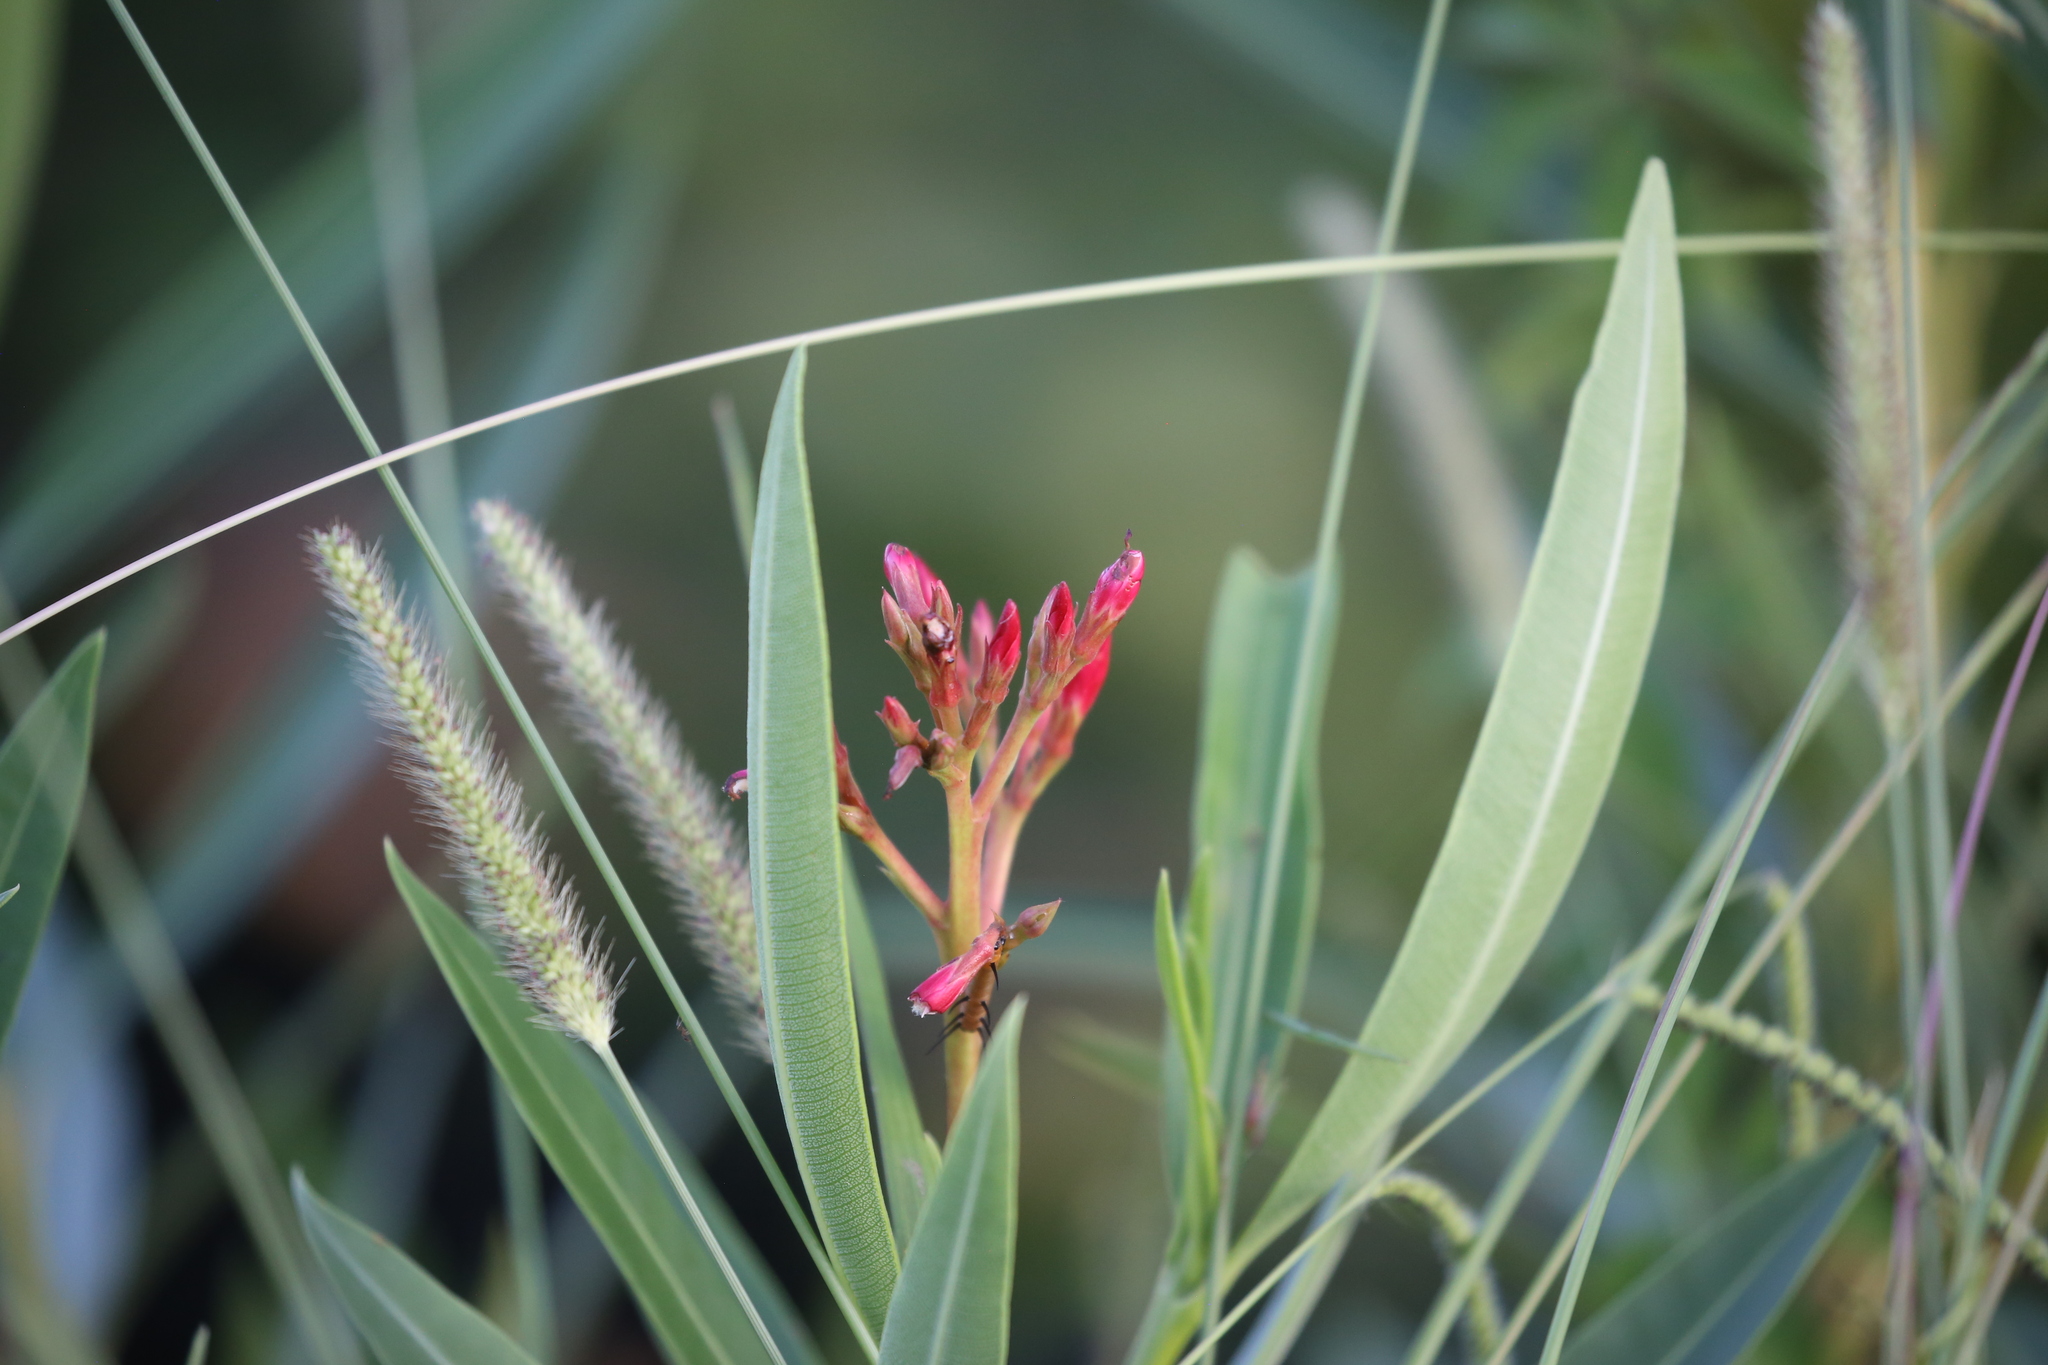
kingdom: Plantae
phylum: Tracheophyta
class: Magnoliopsida
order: Gentianales
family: Apocynaceae
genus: Nerium
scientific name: Nerium oleander
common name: Oleander
